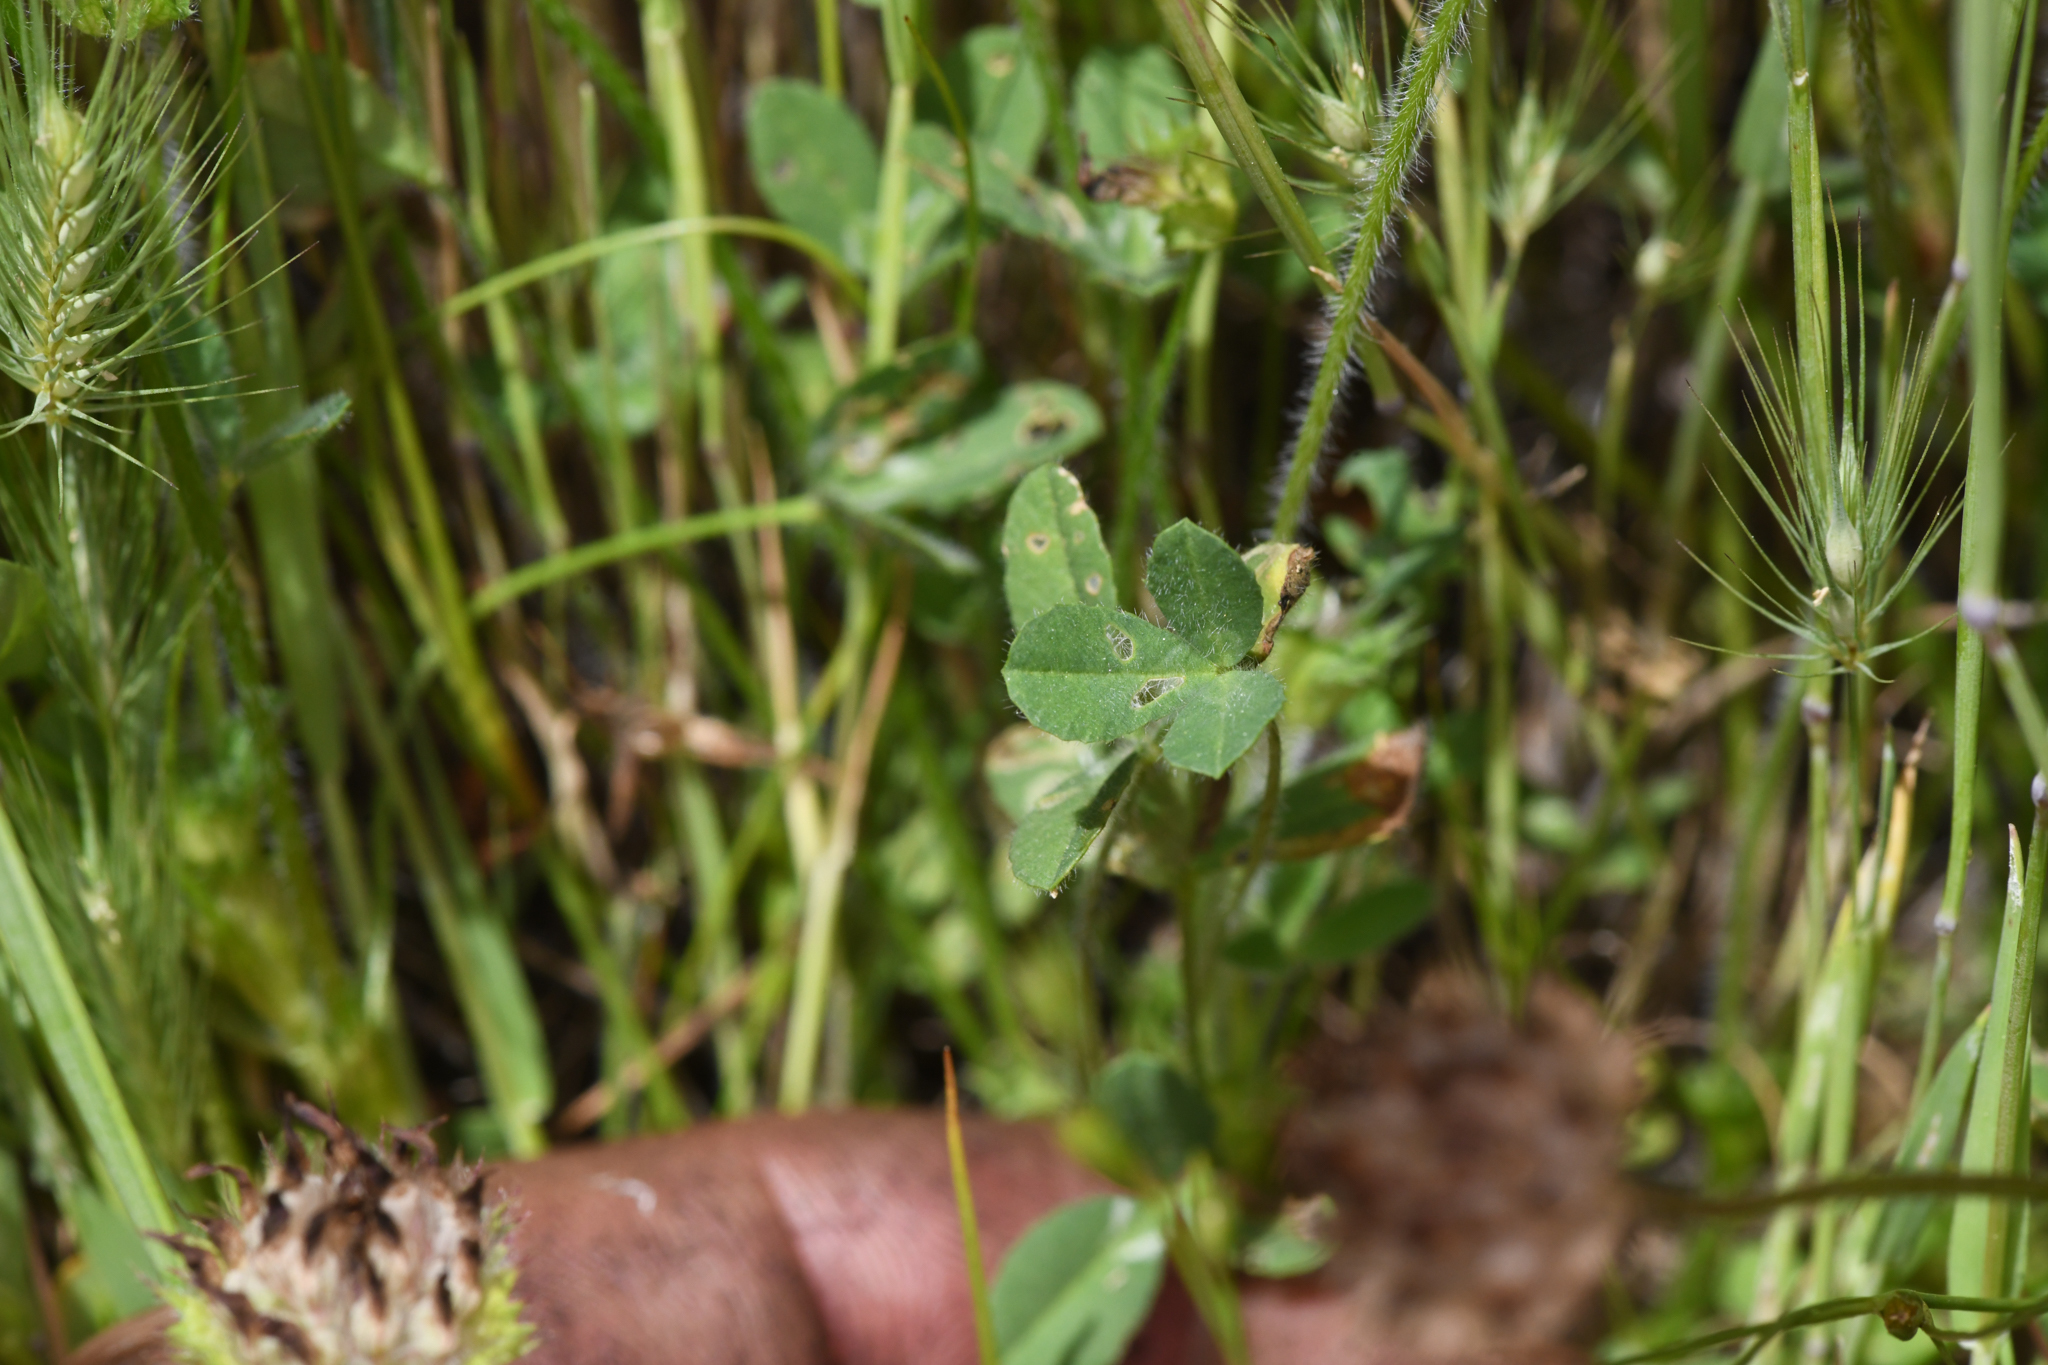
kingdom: Plantae
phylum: Tracheophyta
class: Magnoliopsida
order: Fabales
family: Fabaceae
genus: Trifolium
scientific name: Trifolium barbigerum
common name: Bearded clover
